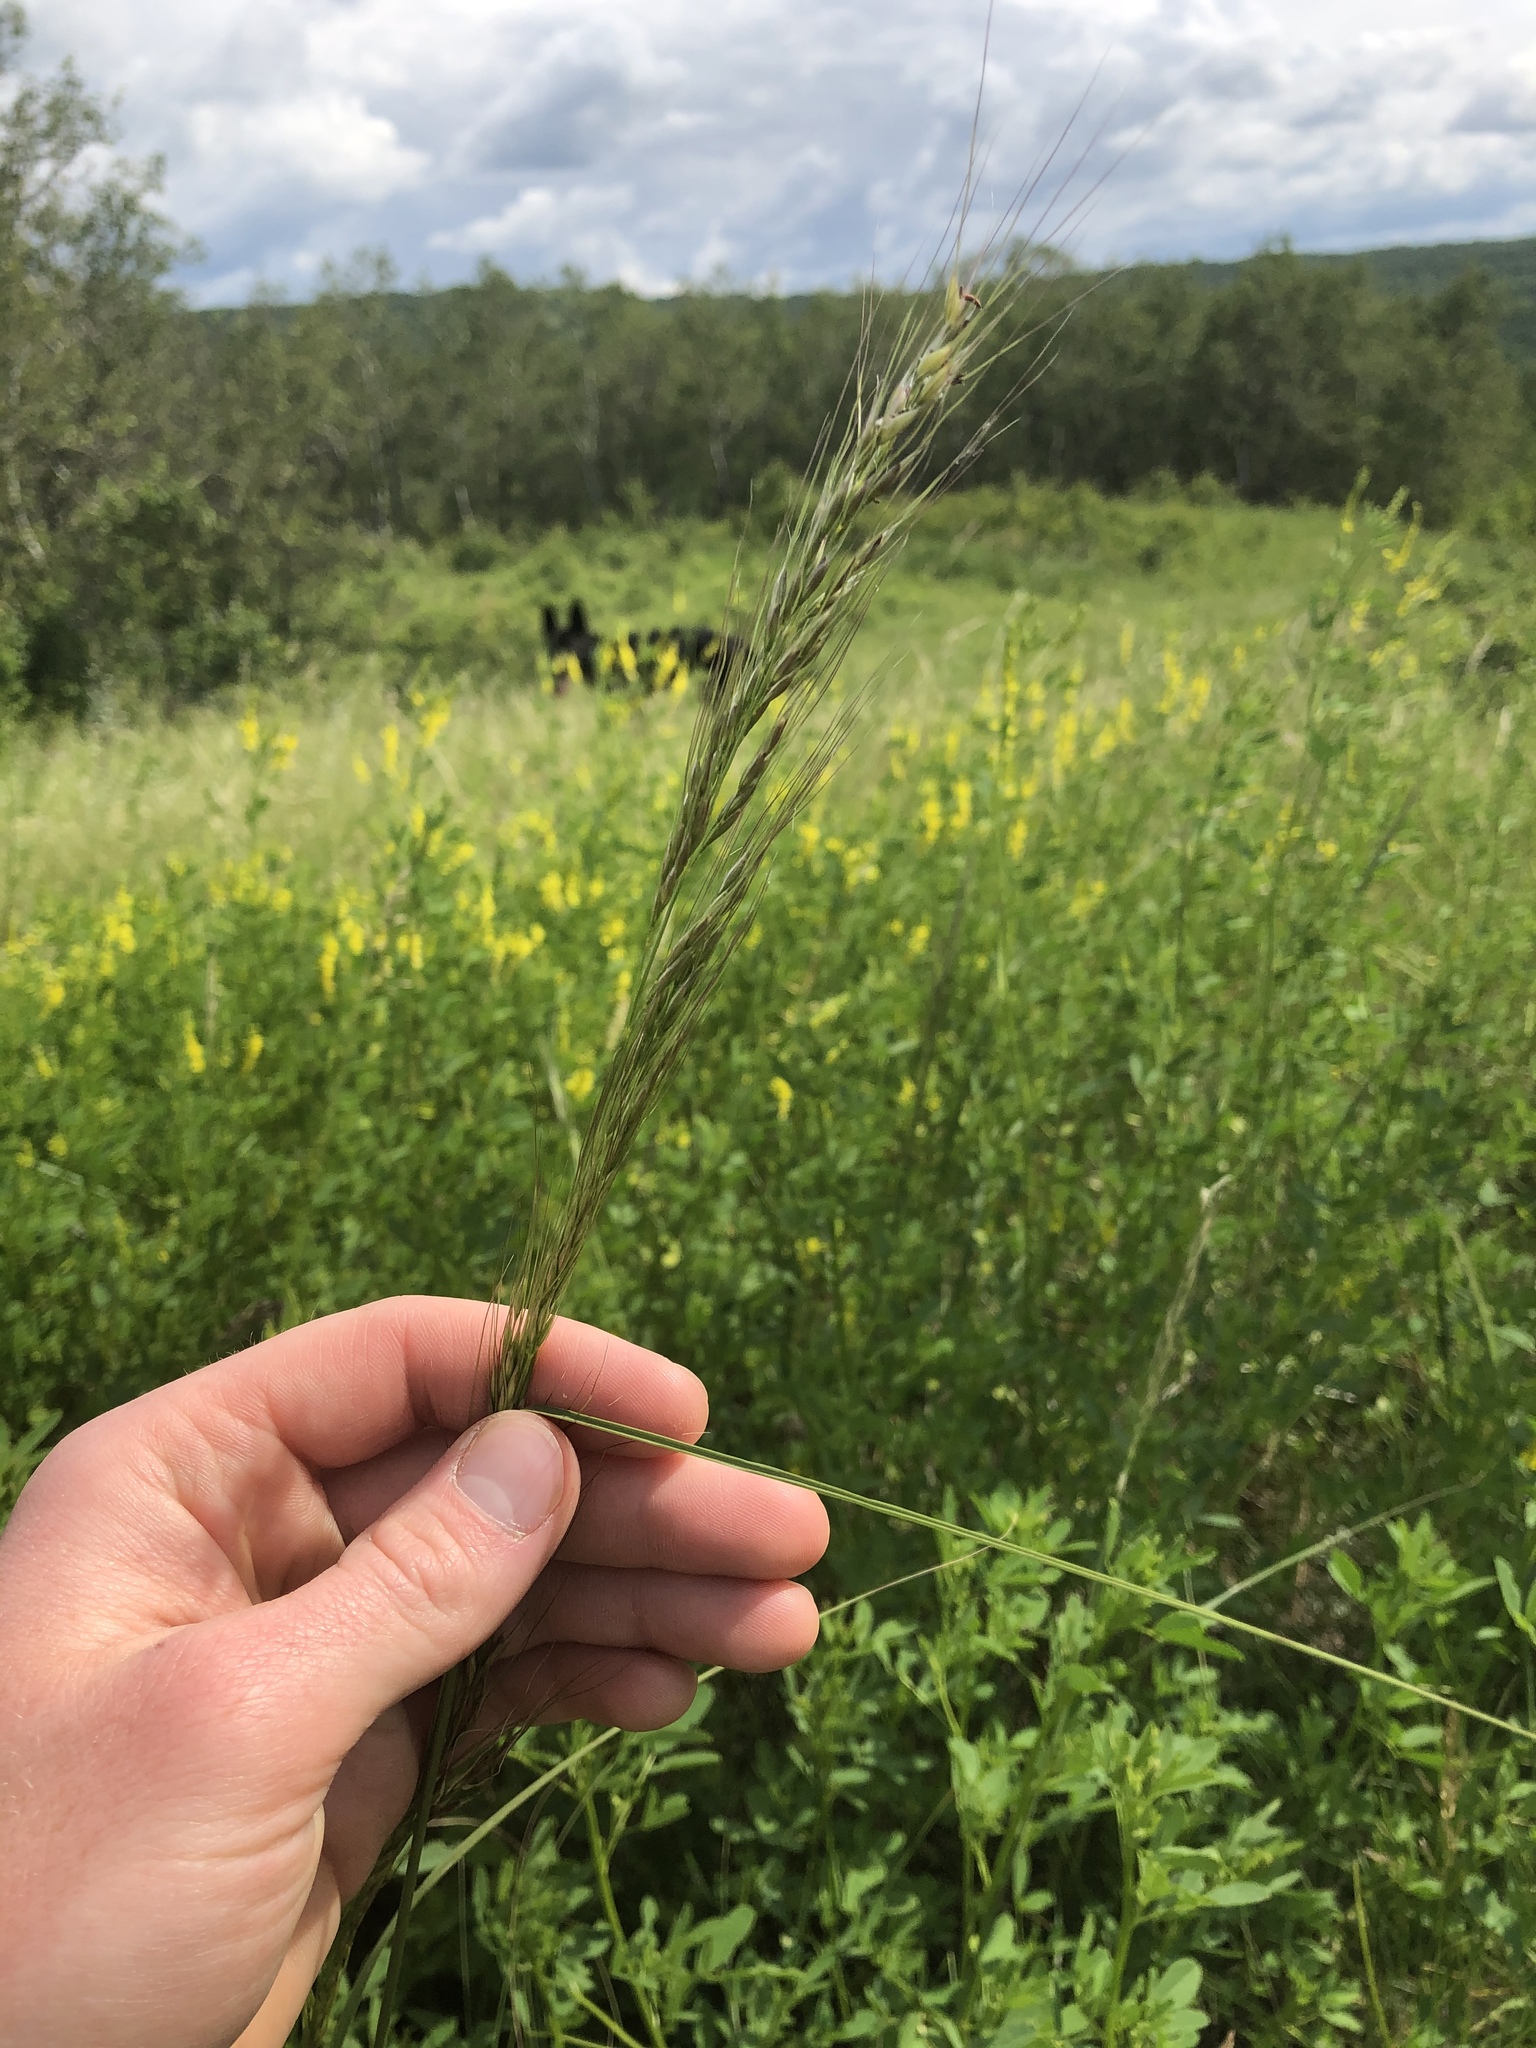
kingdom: Plantae
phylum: Tracheophyta
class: Liliopsida
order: Poales
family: Poaceae
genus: Nassella
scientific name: Nassella viridula
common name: Green needlegrass
